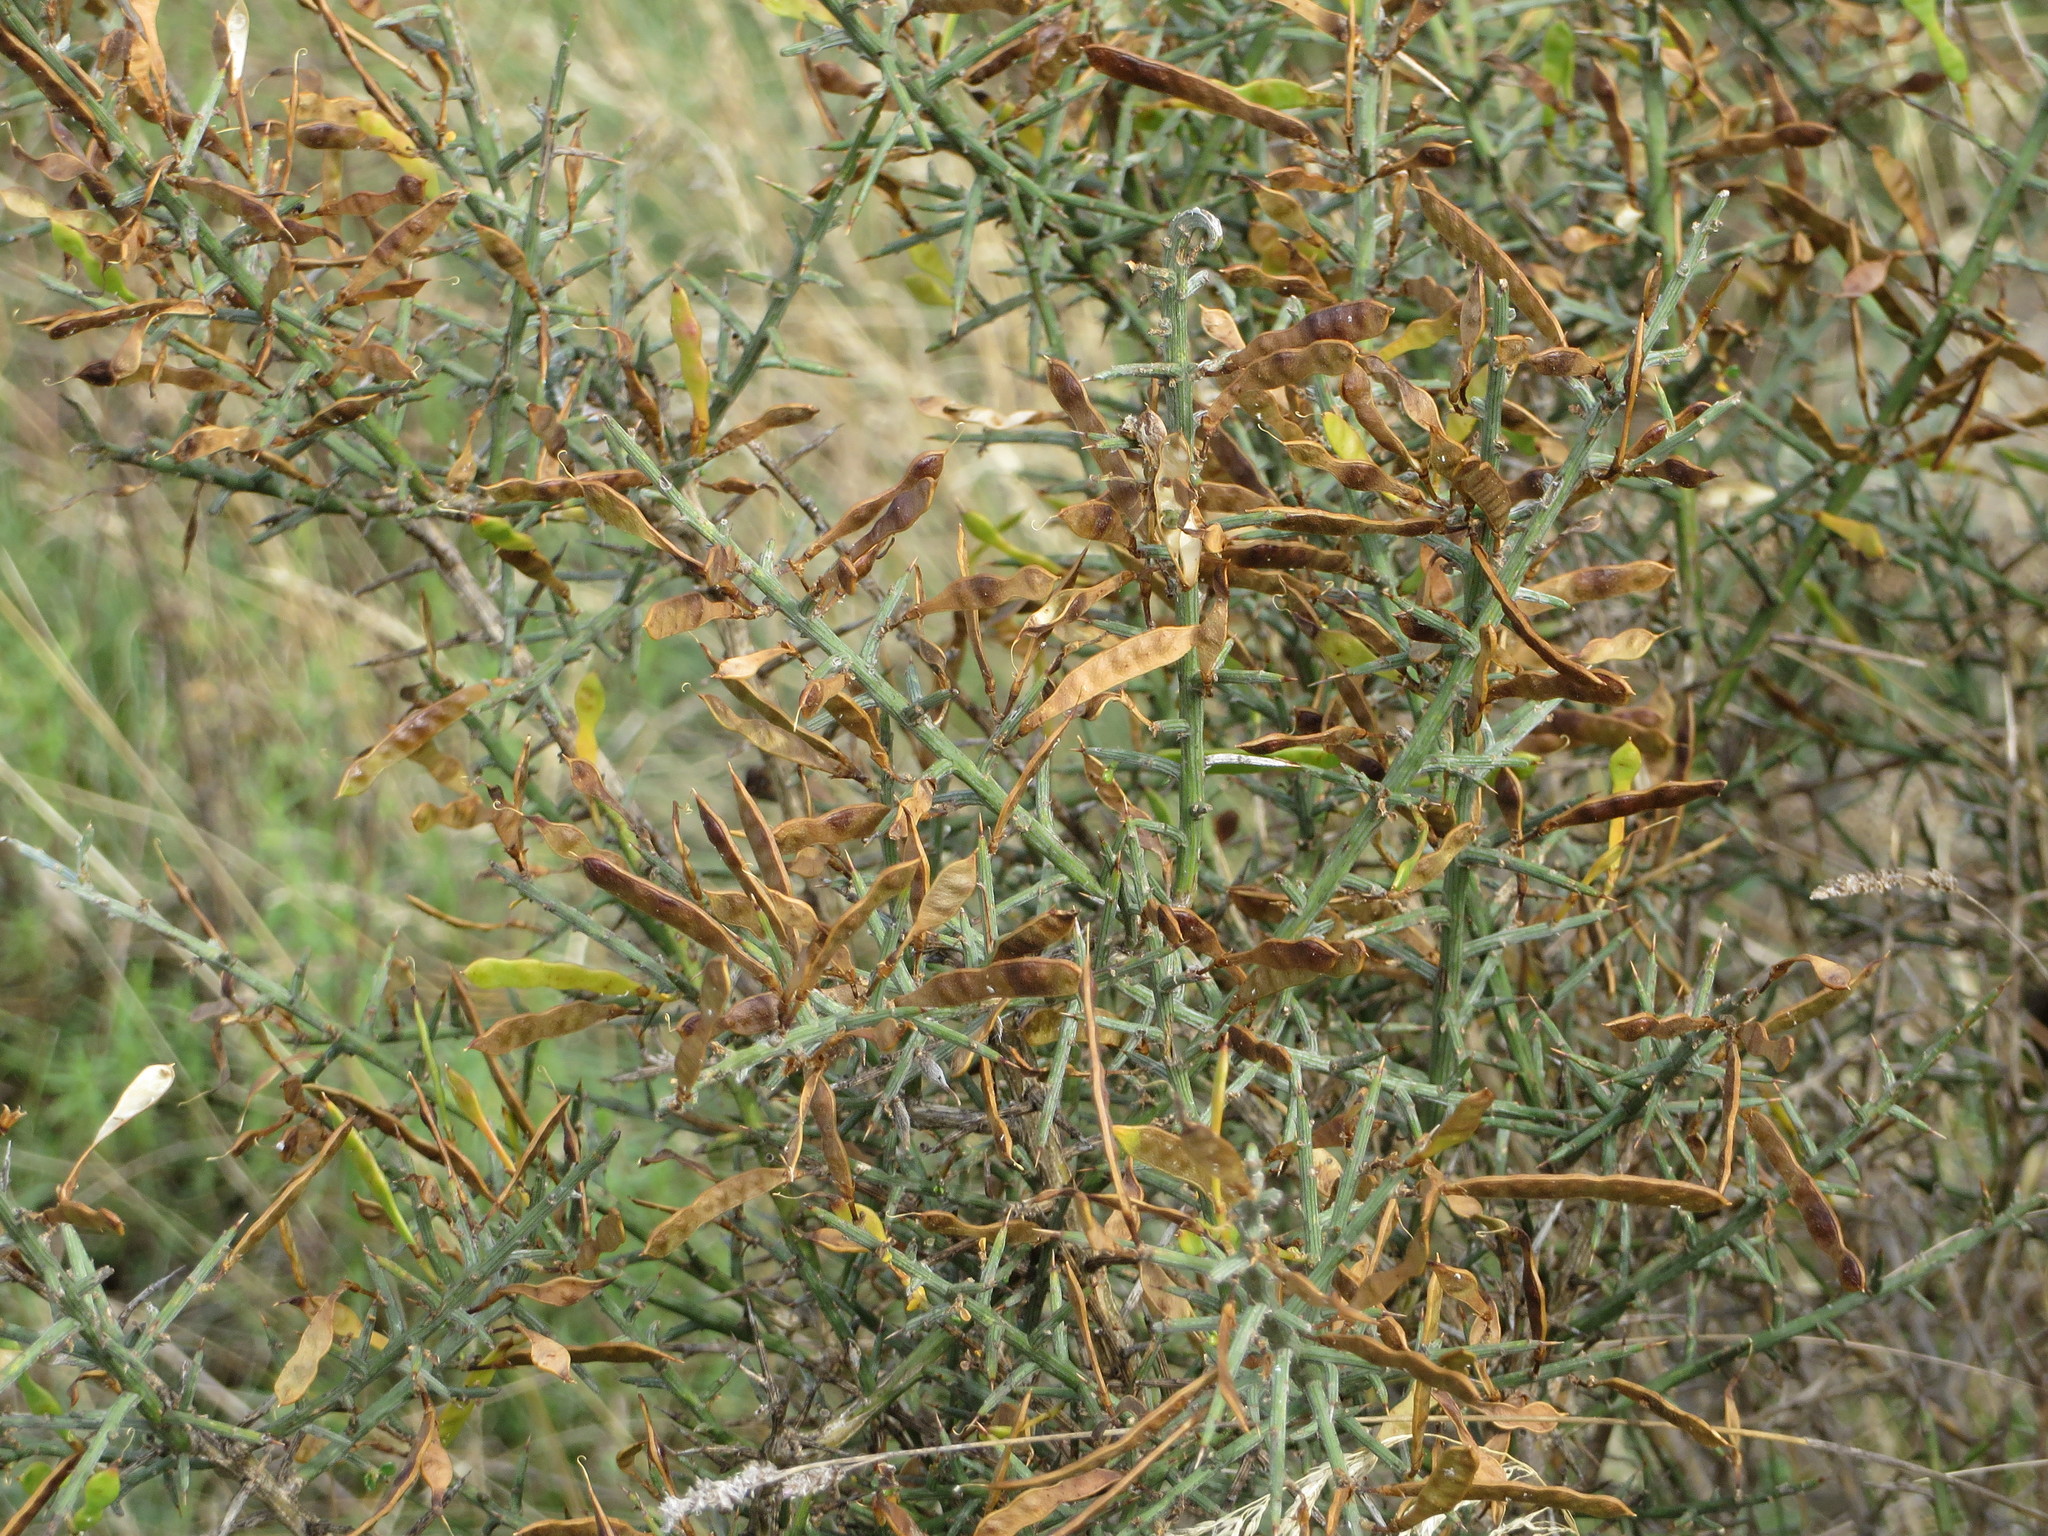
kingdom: Plantae
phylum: Tracheophyta
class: Magnoliopsida
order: Fabales
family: Fabaceae
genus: Genista
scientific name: Genista scorpius
